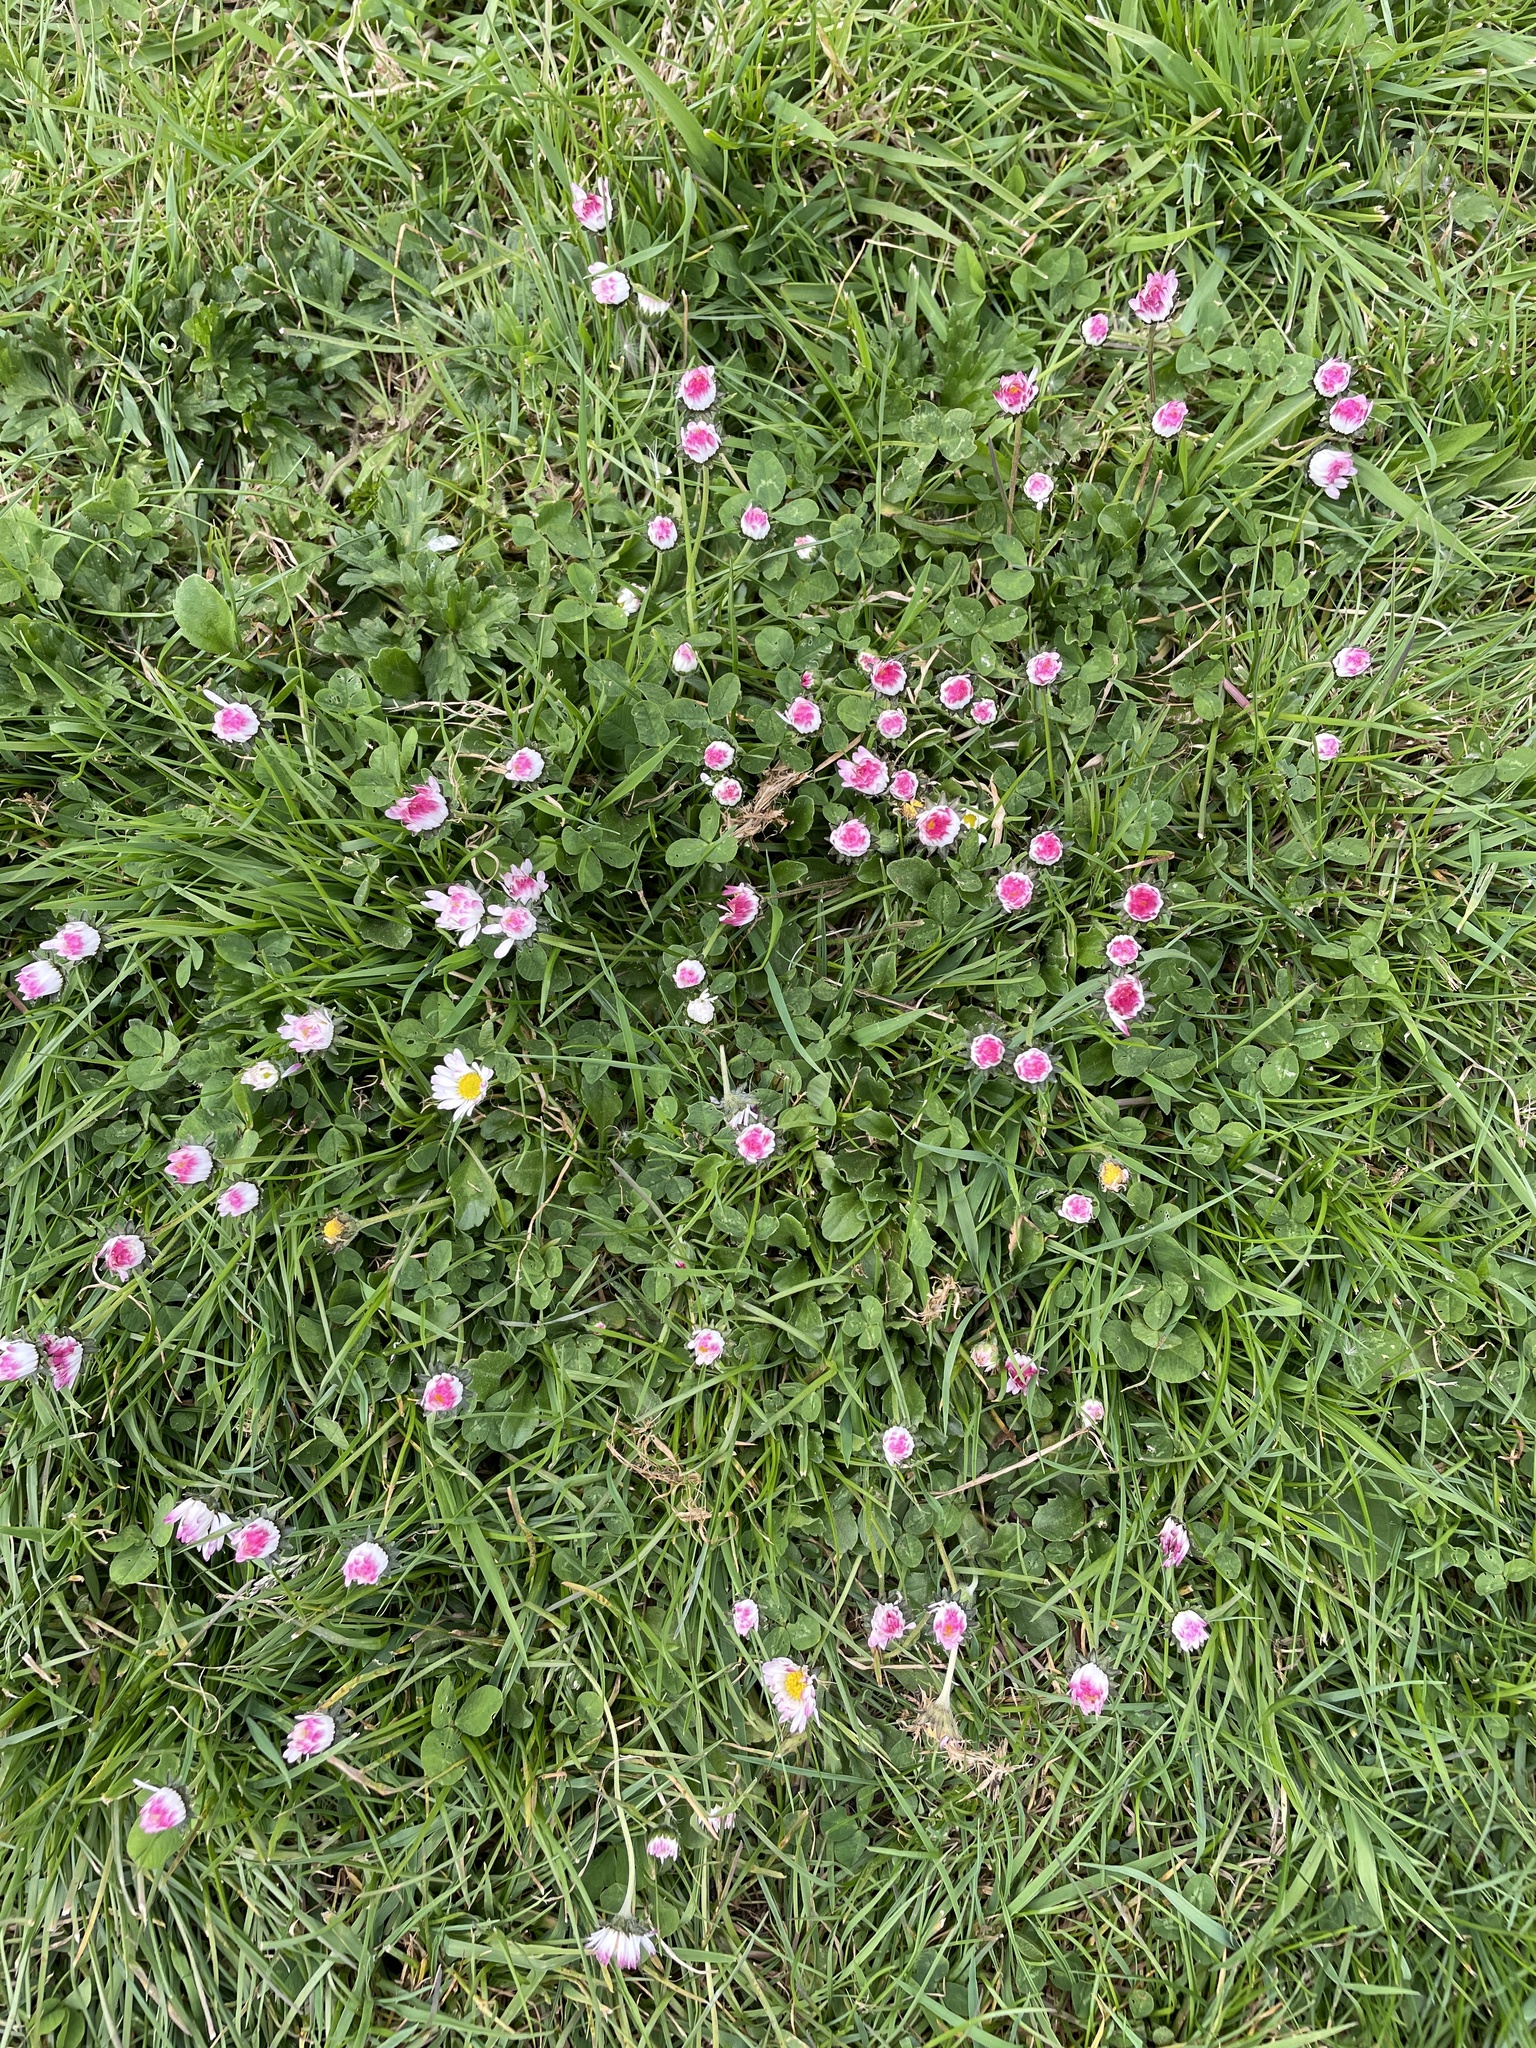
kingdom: Plantae
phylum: Tracheophyta
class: Magnoliopsida
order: Asterales
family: Asteraceae
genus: Bellis
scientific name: Bellis perennis
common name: Lawndaisy
